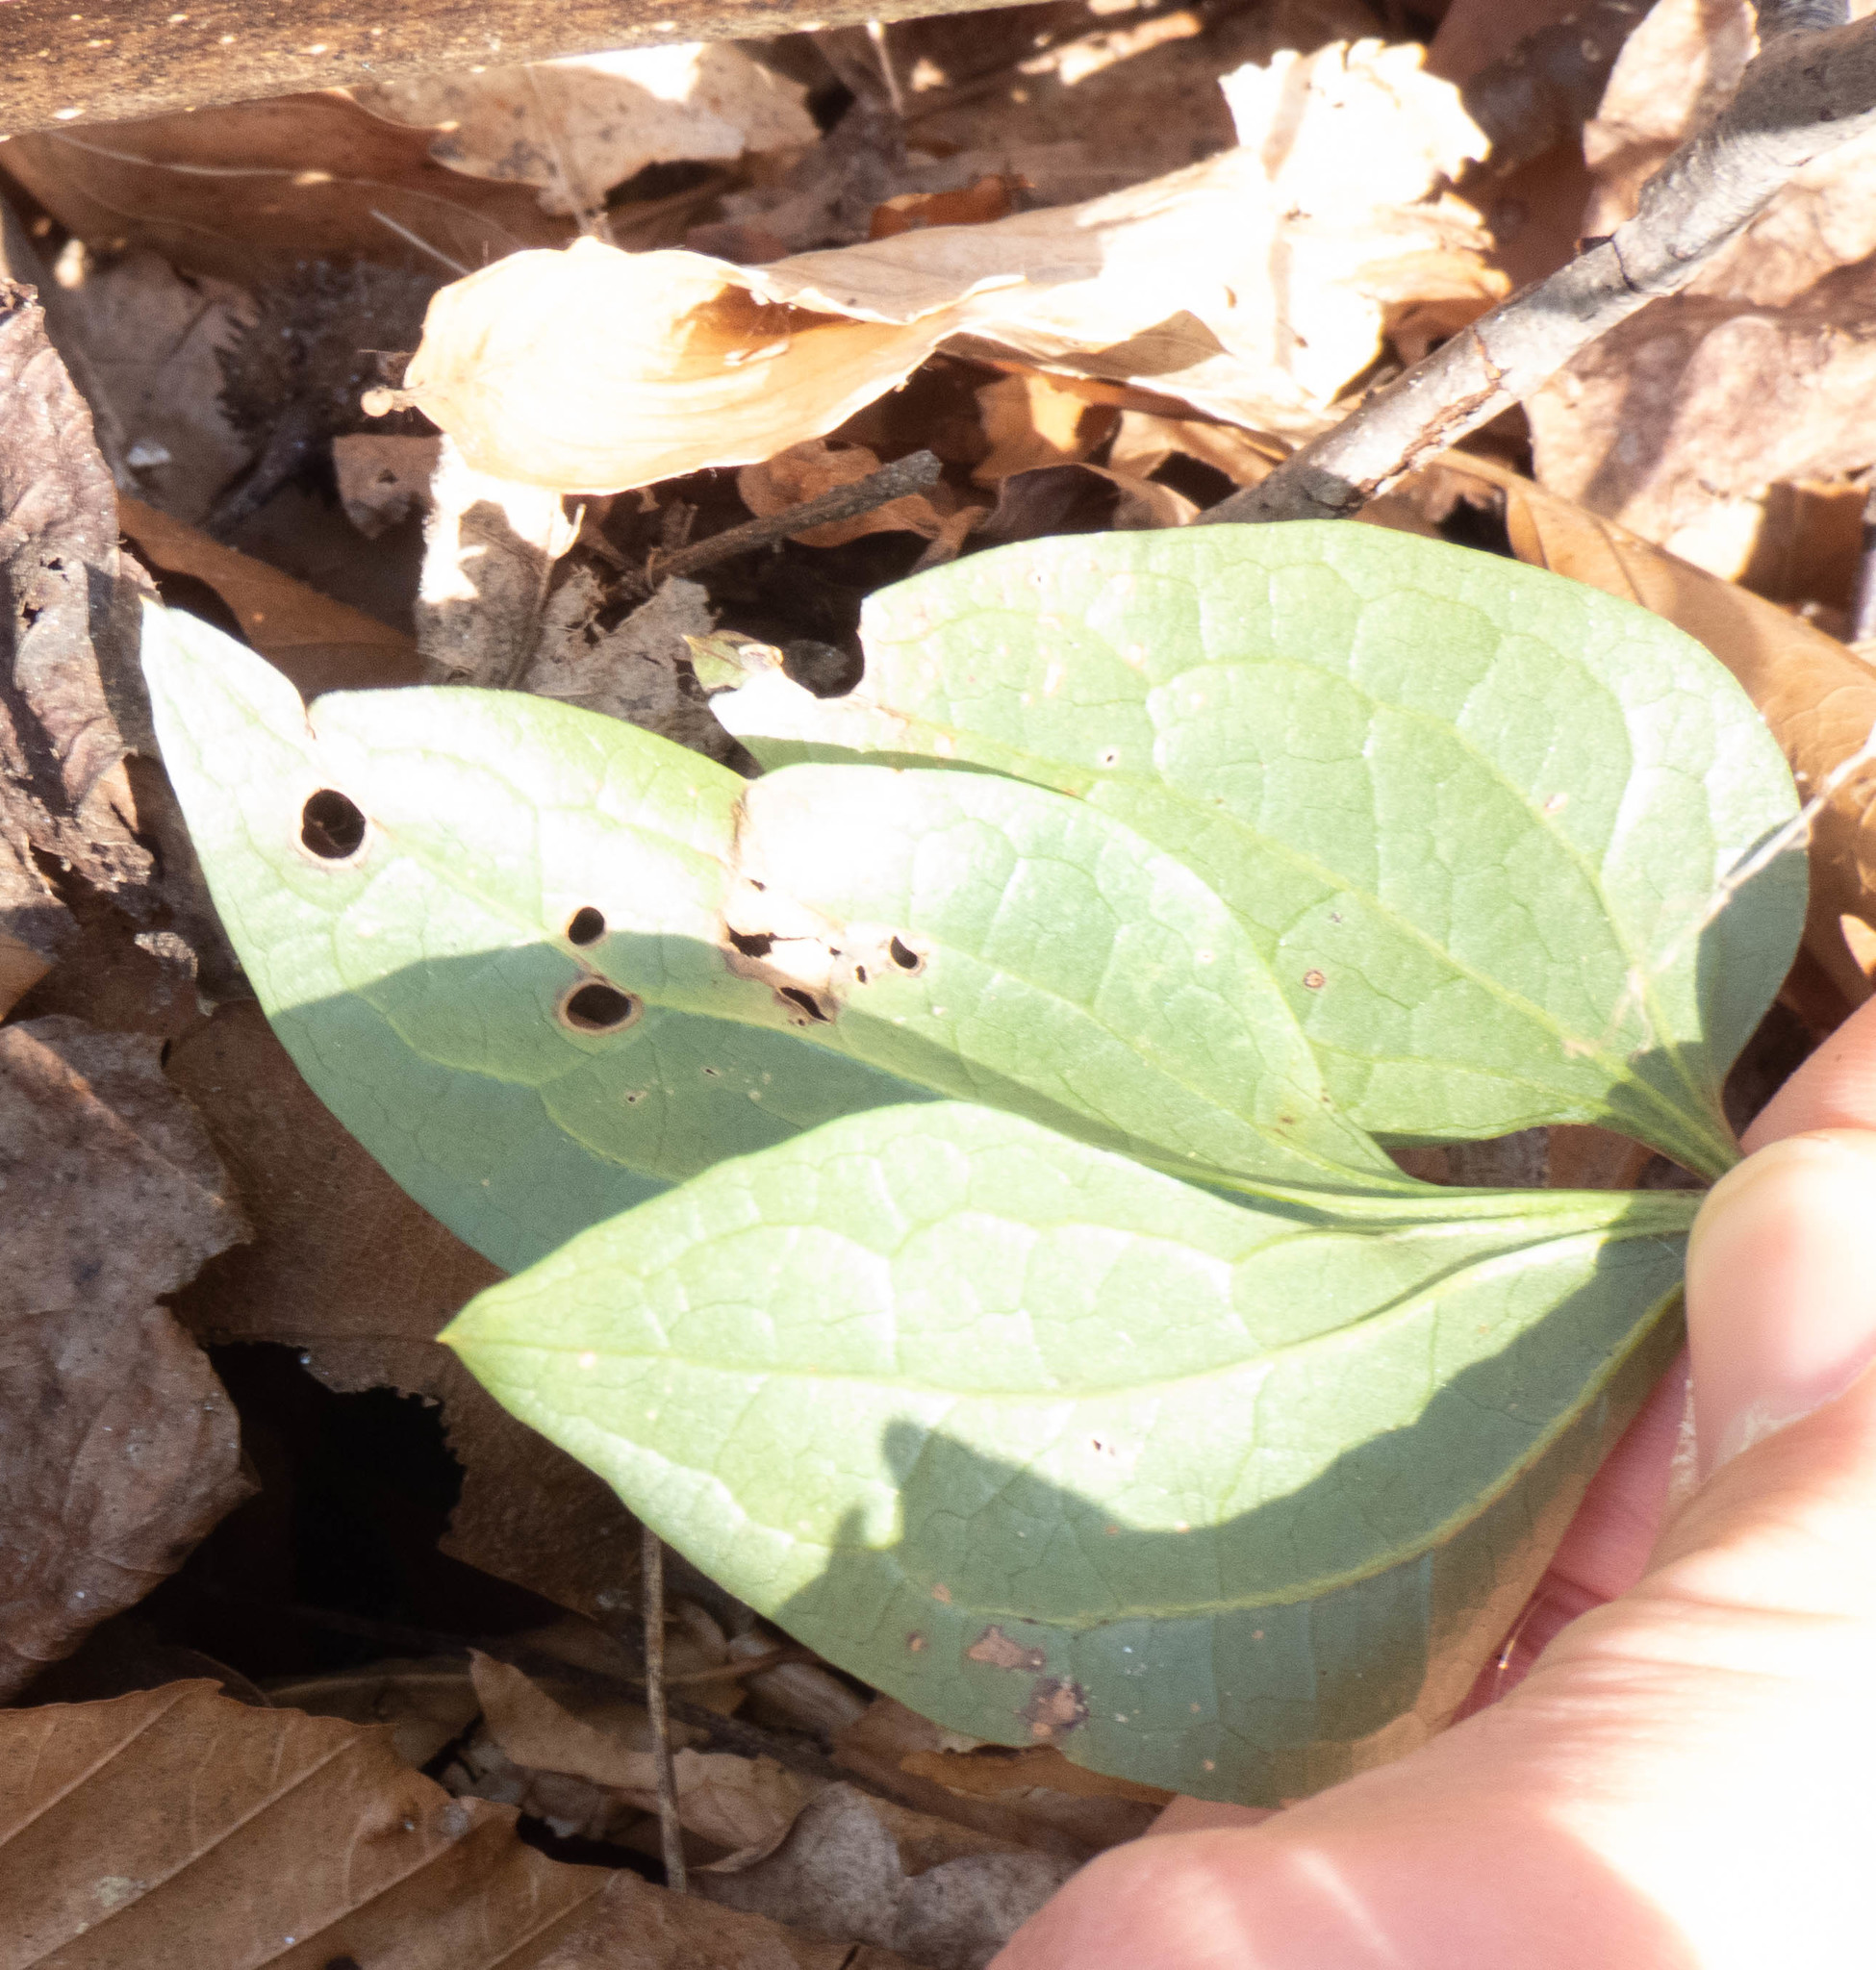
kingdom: Plantae
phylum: Tracheophyta
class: Magnoliopsida
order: Ranunculales
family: Ranunculaceae
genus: Clematis
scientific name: Clematis terniflora
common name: Sweet autumn clematis
